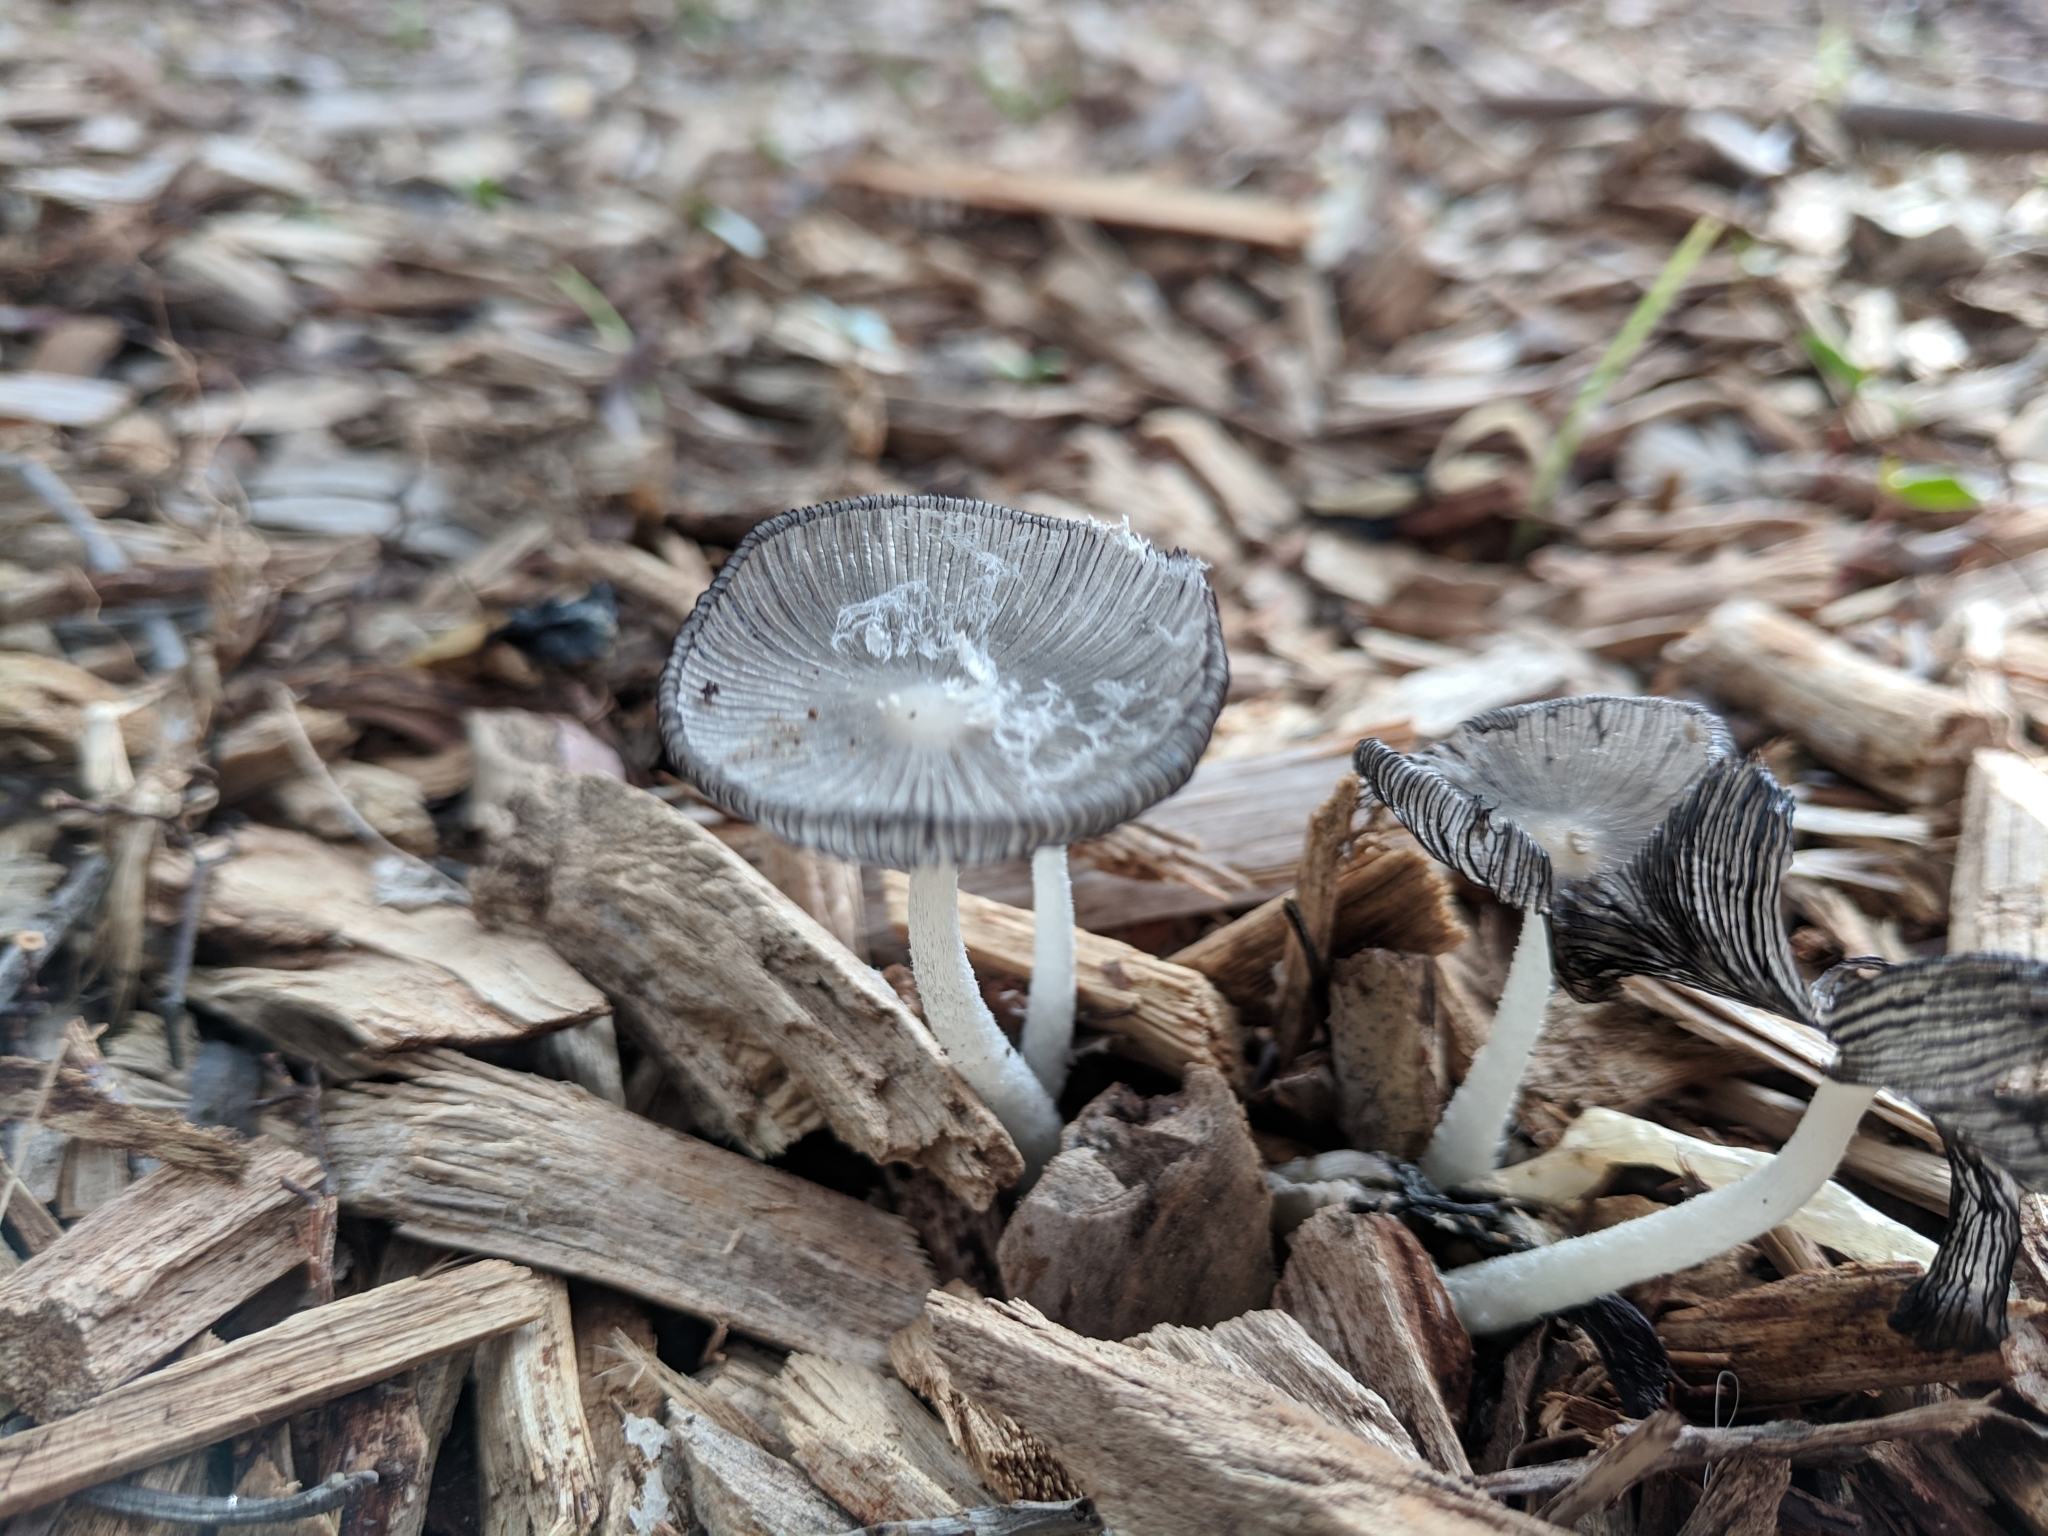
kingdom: Fungi
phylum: Basidiomycota
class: Agaricomycetes
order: Agaricales
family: Psathyrellaceae
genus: Coprinopsis
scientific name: Coprinopsis lagopus
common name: Hare'sfoot inkcap
